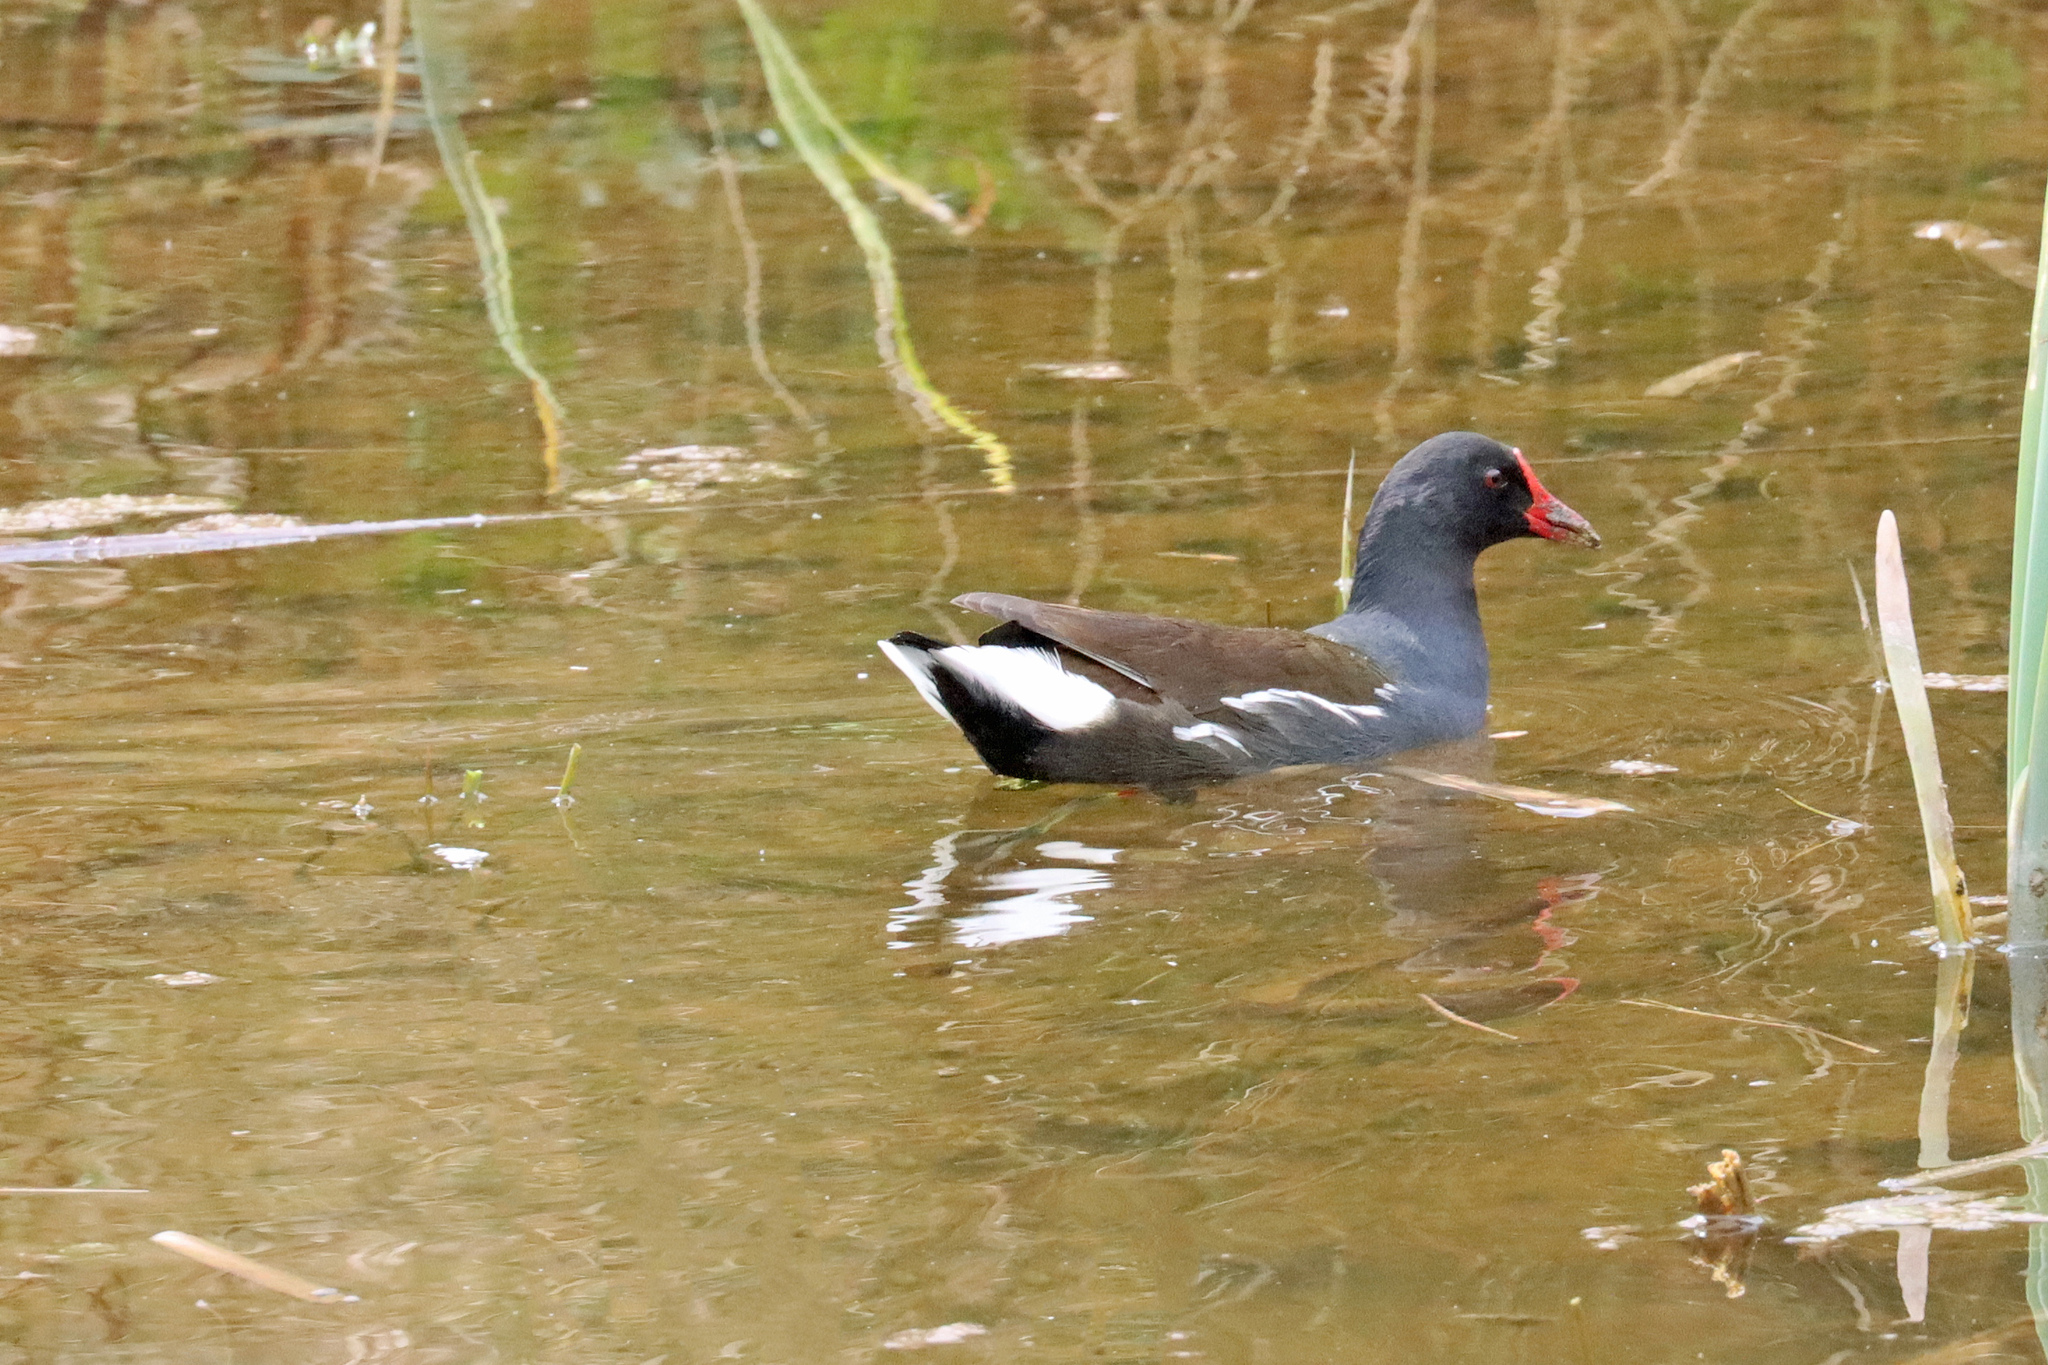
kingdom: Animalia
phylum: Chordata
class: Aves
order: Gruiformes
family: Rallidae
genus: Gallinula
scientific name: Gallinula chloropus
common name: Common moorhen
